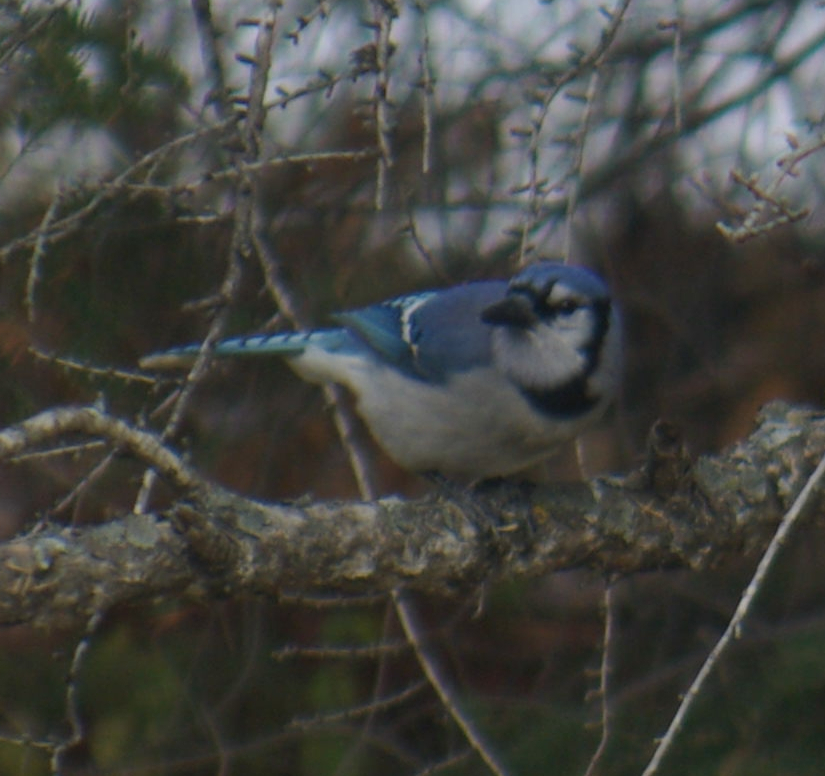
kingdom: Animalia
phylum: Chordata
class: Aves
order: Passeriformes
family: Corvidae
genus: Cyanocitta
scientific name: Cyanocitta cristata
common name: Blue jay
